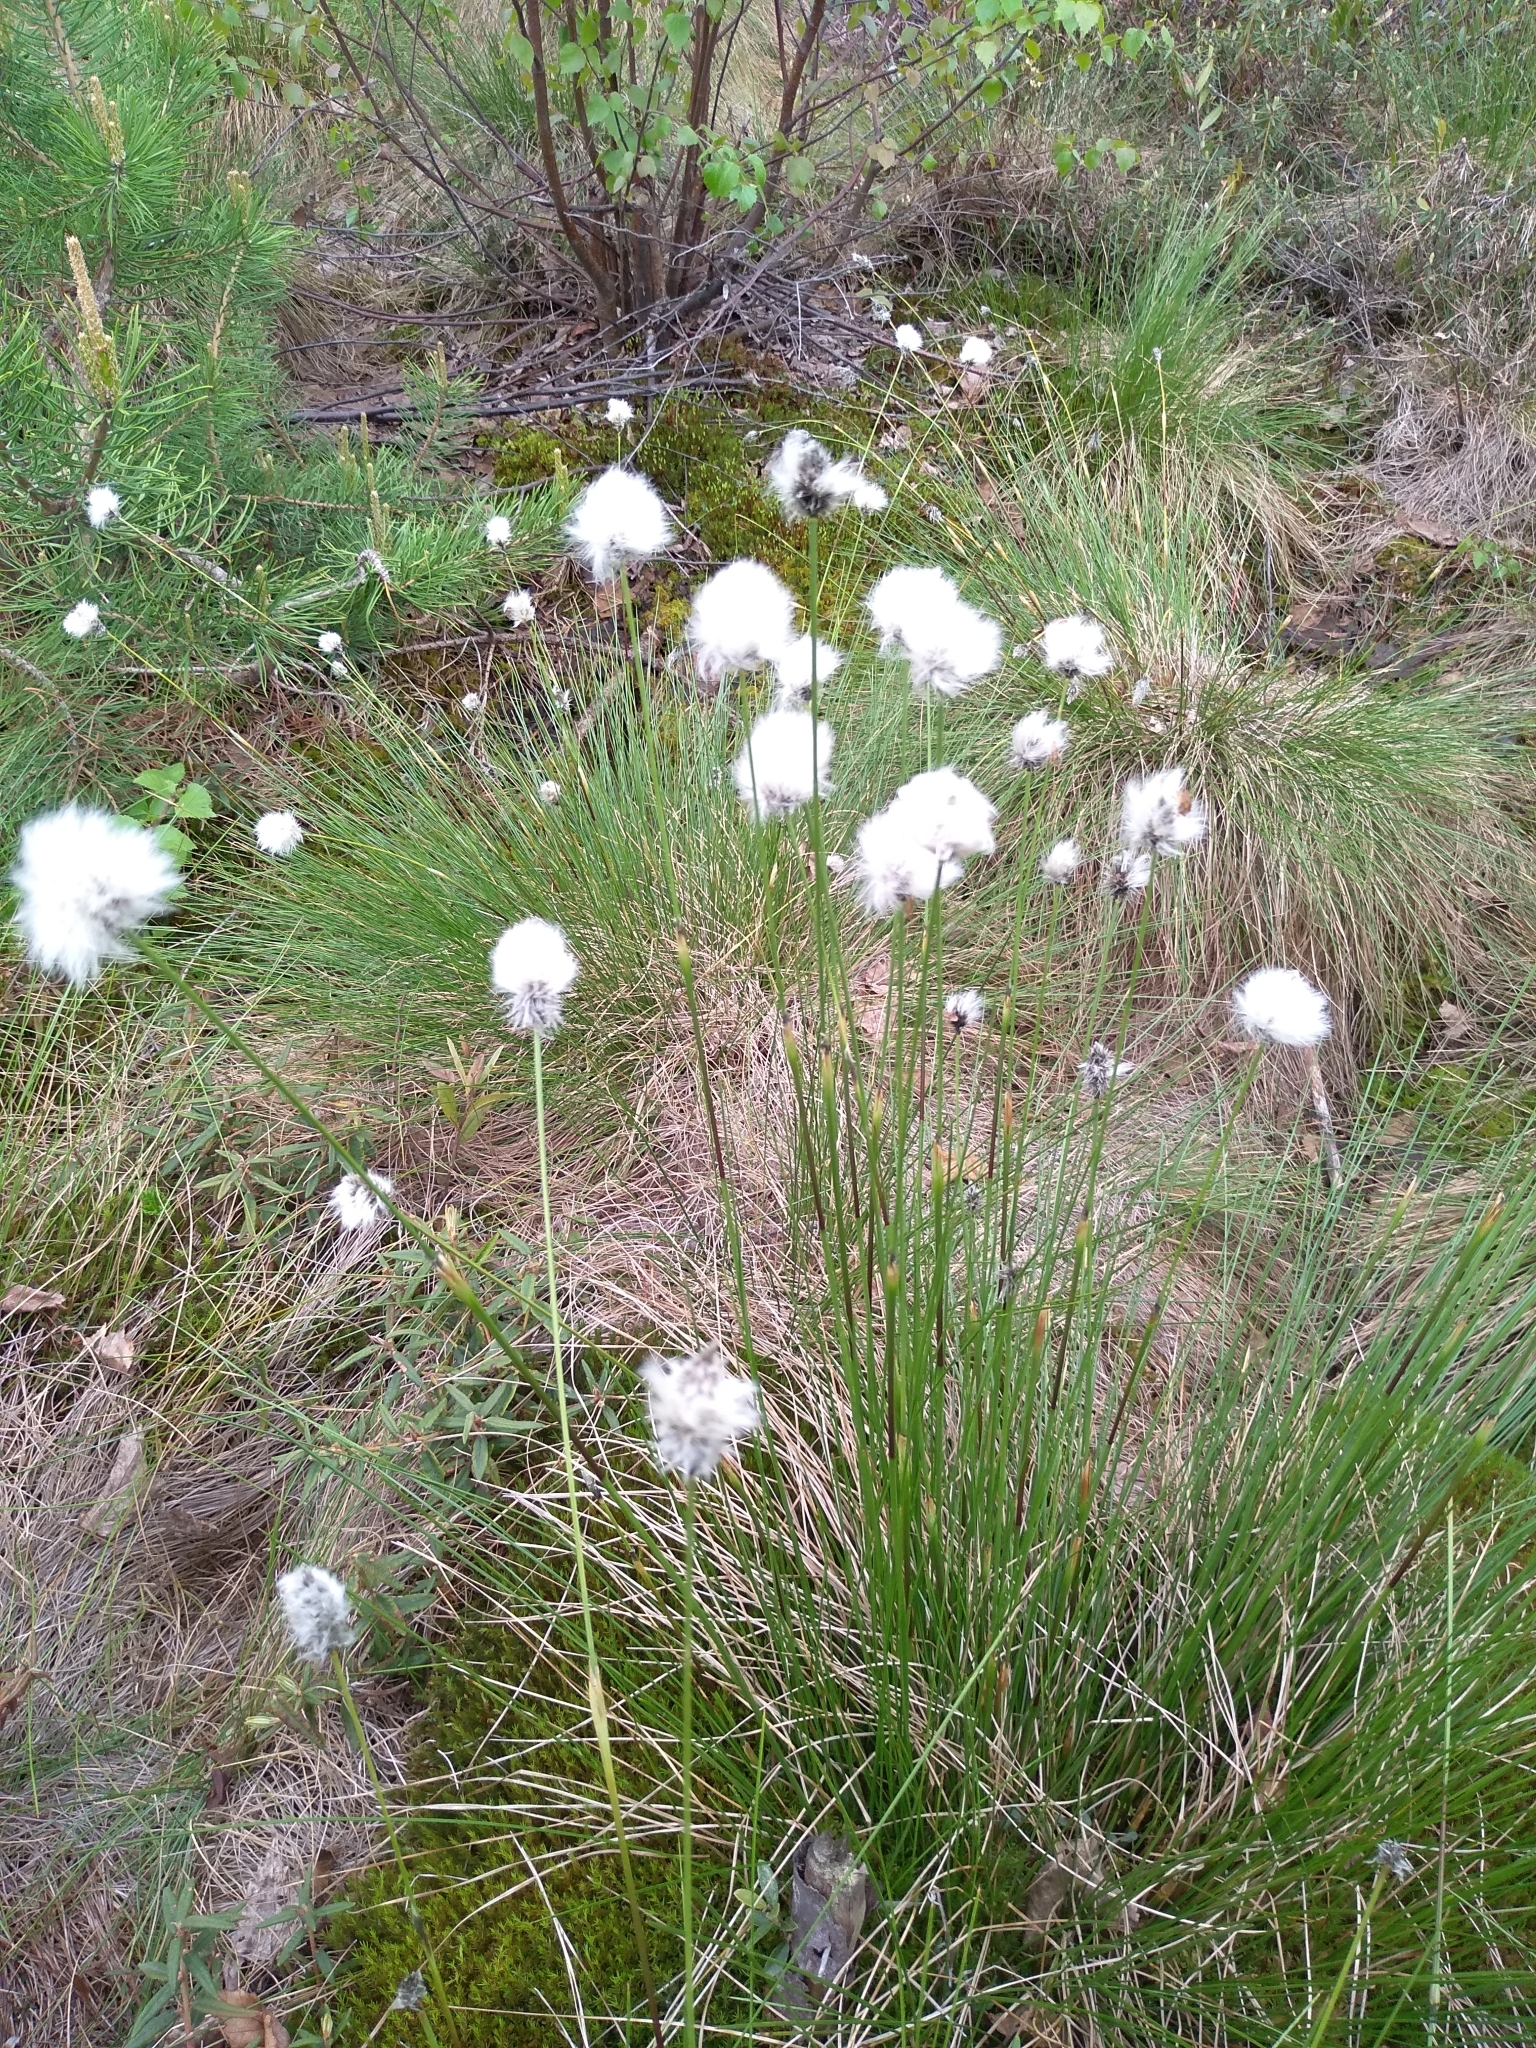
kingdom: Plantae
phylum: Tracheophyta
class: Liliopsida
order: Poales
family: Cyperaceae
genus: Eriophorum
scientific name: Eriophorum vaginatum
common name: Hare's-tail cottongrass
